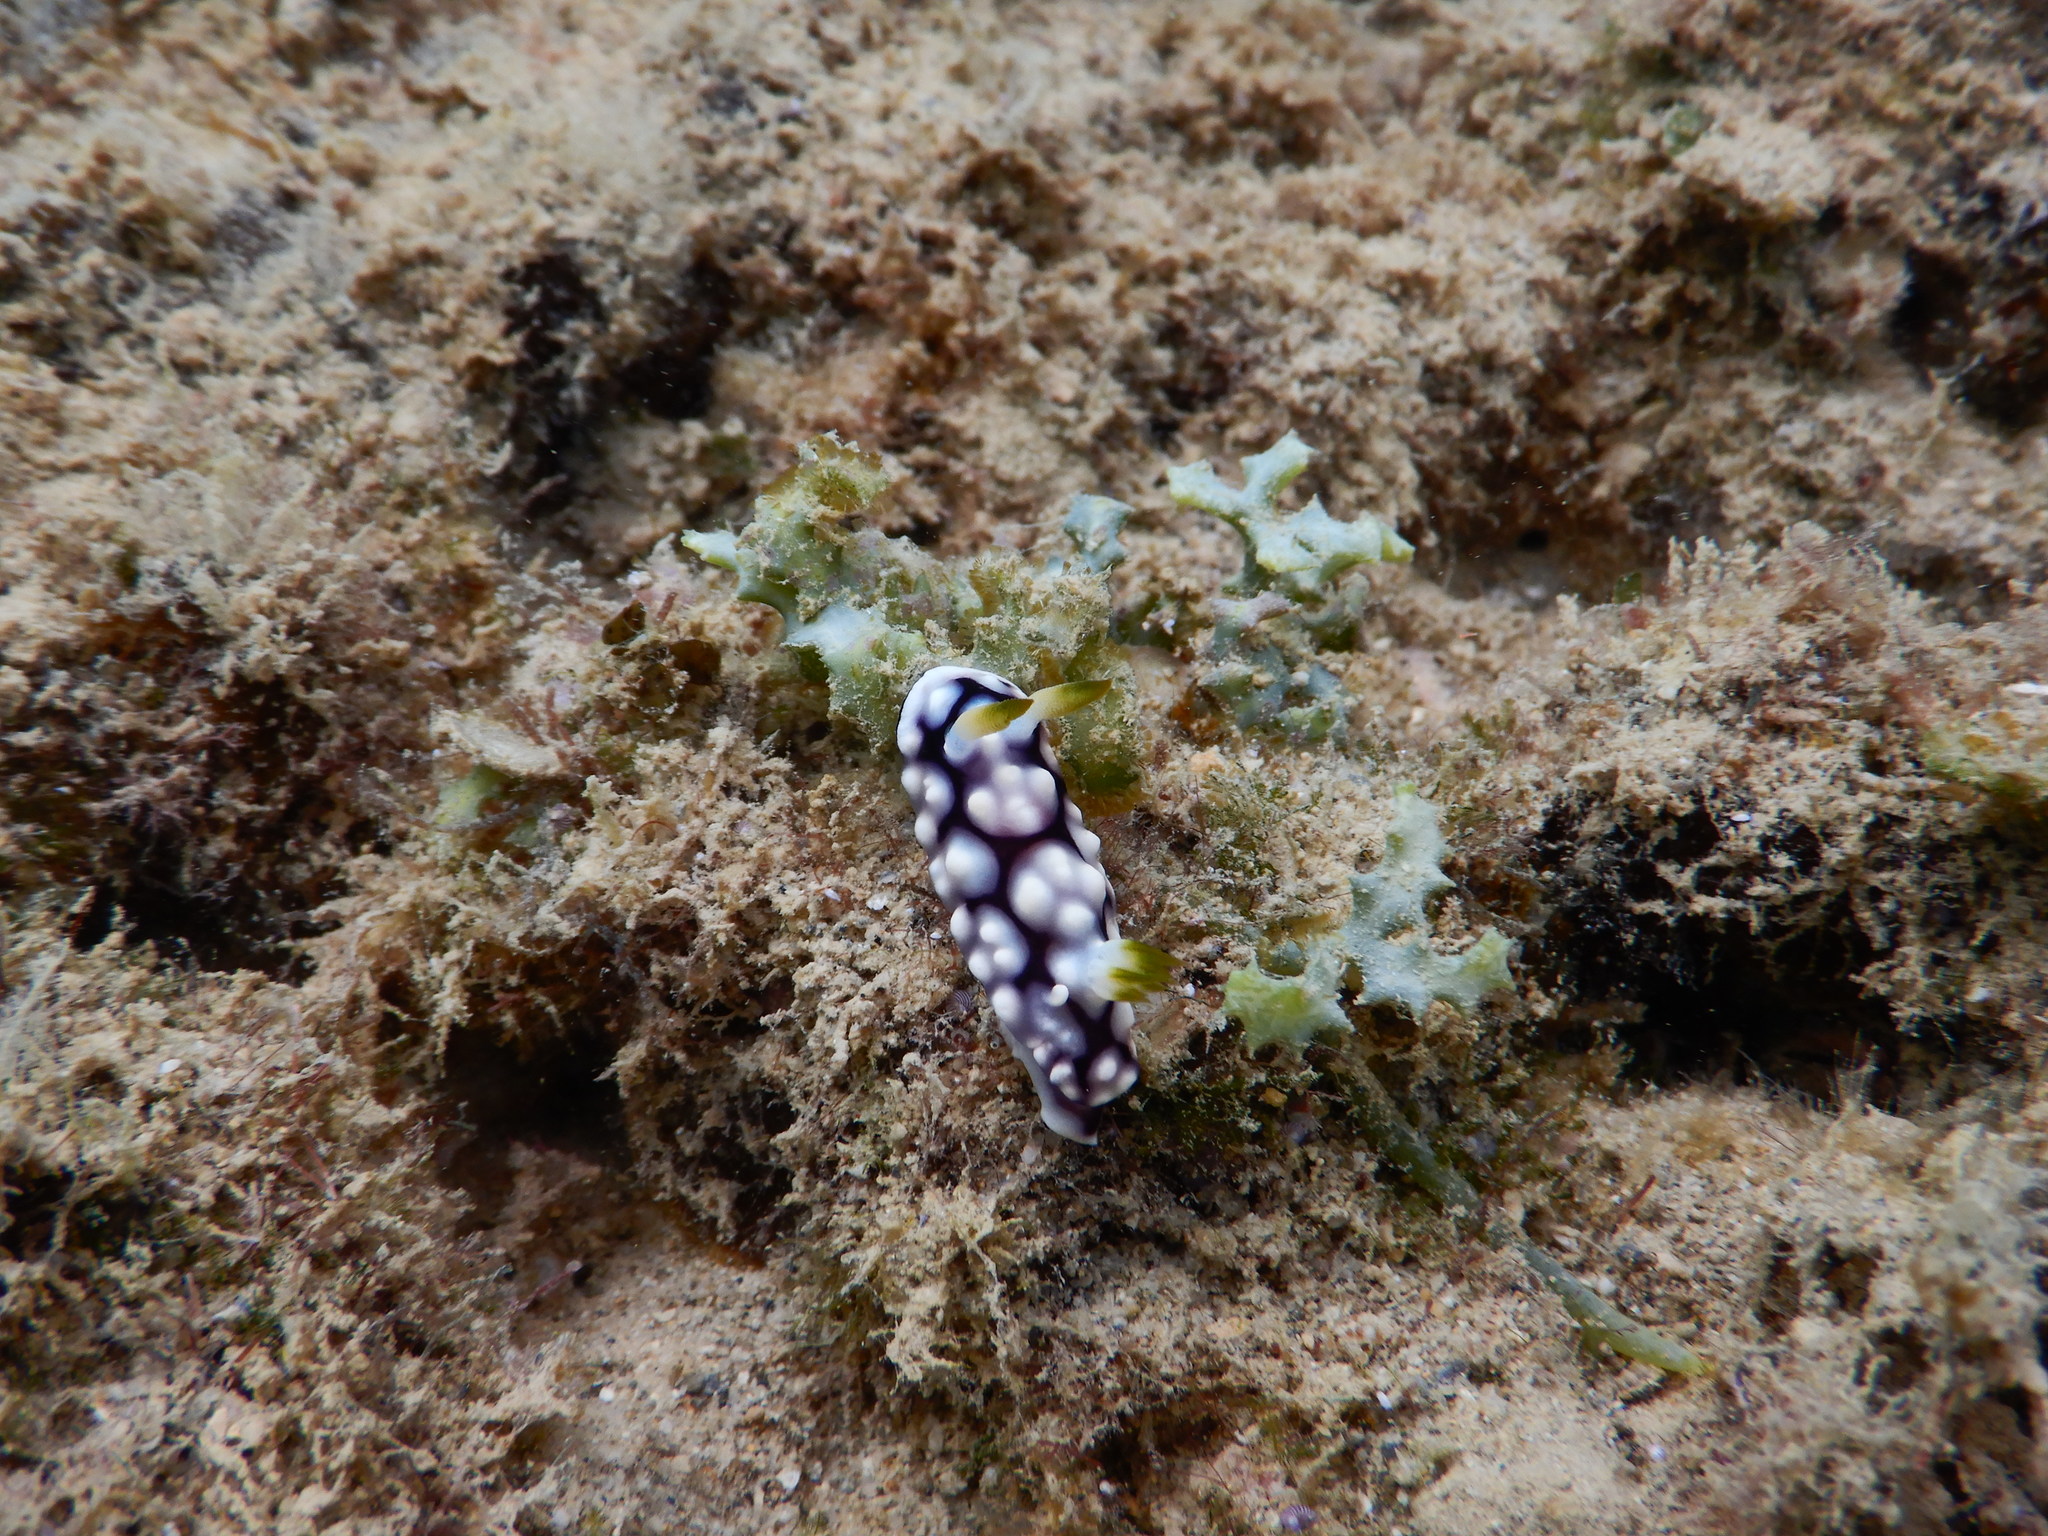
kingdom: Animalia
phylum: Mollusca
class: Gastropoda
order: Nudibranchia
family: Chromodorididae
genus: Goniobranchus
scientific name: Goniobranchus geometricus
